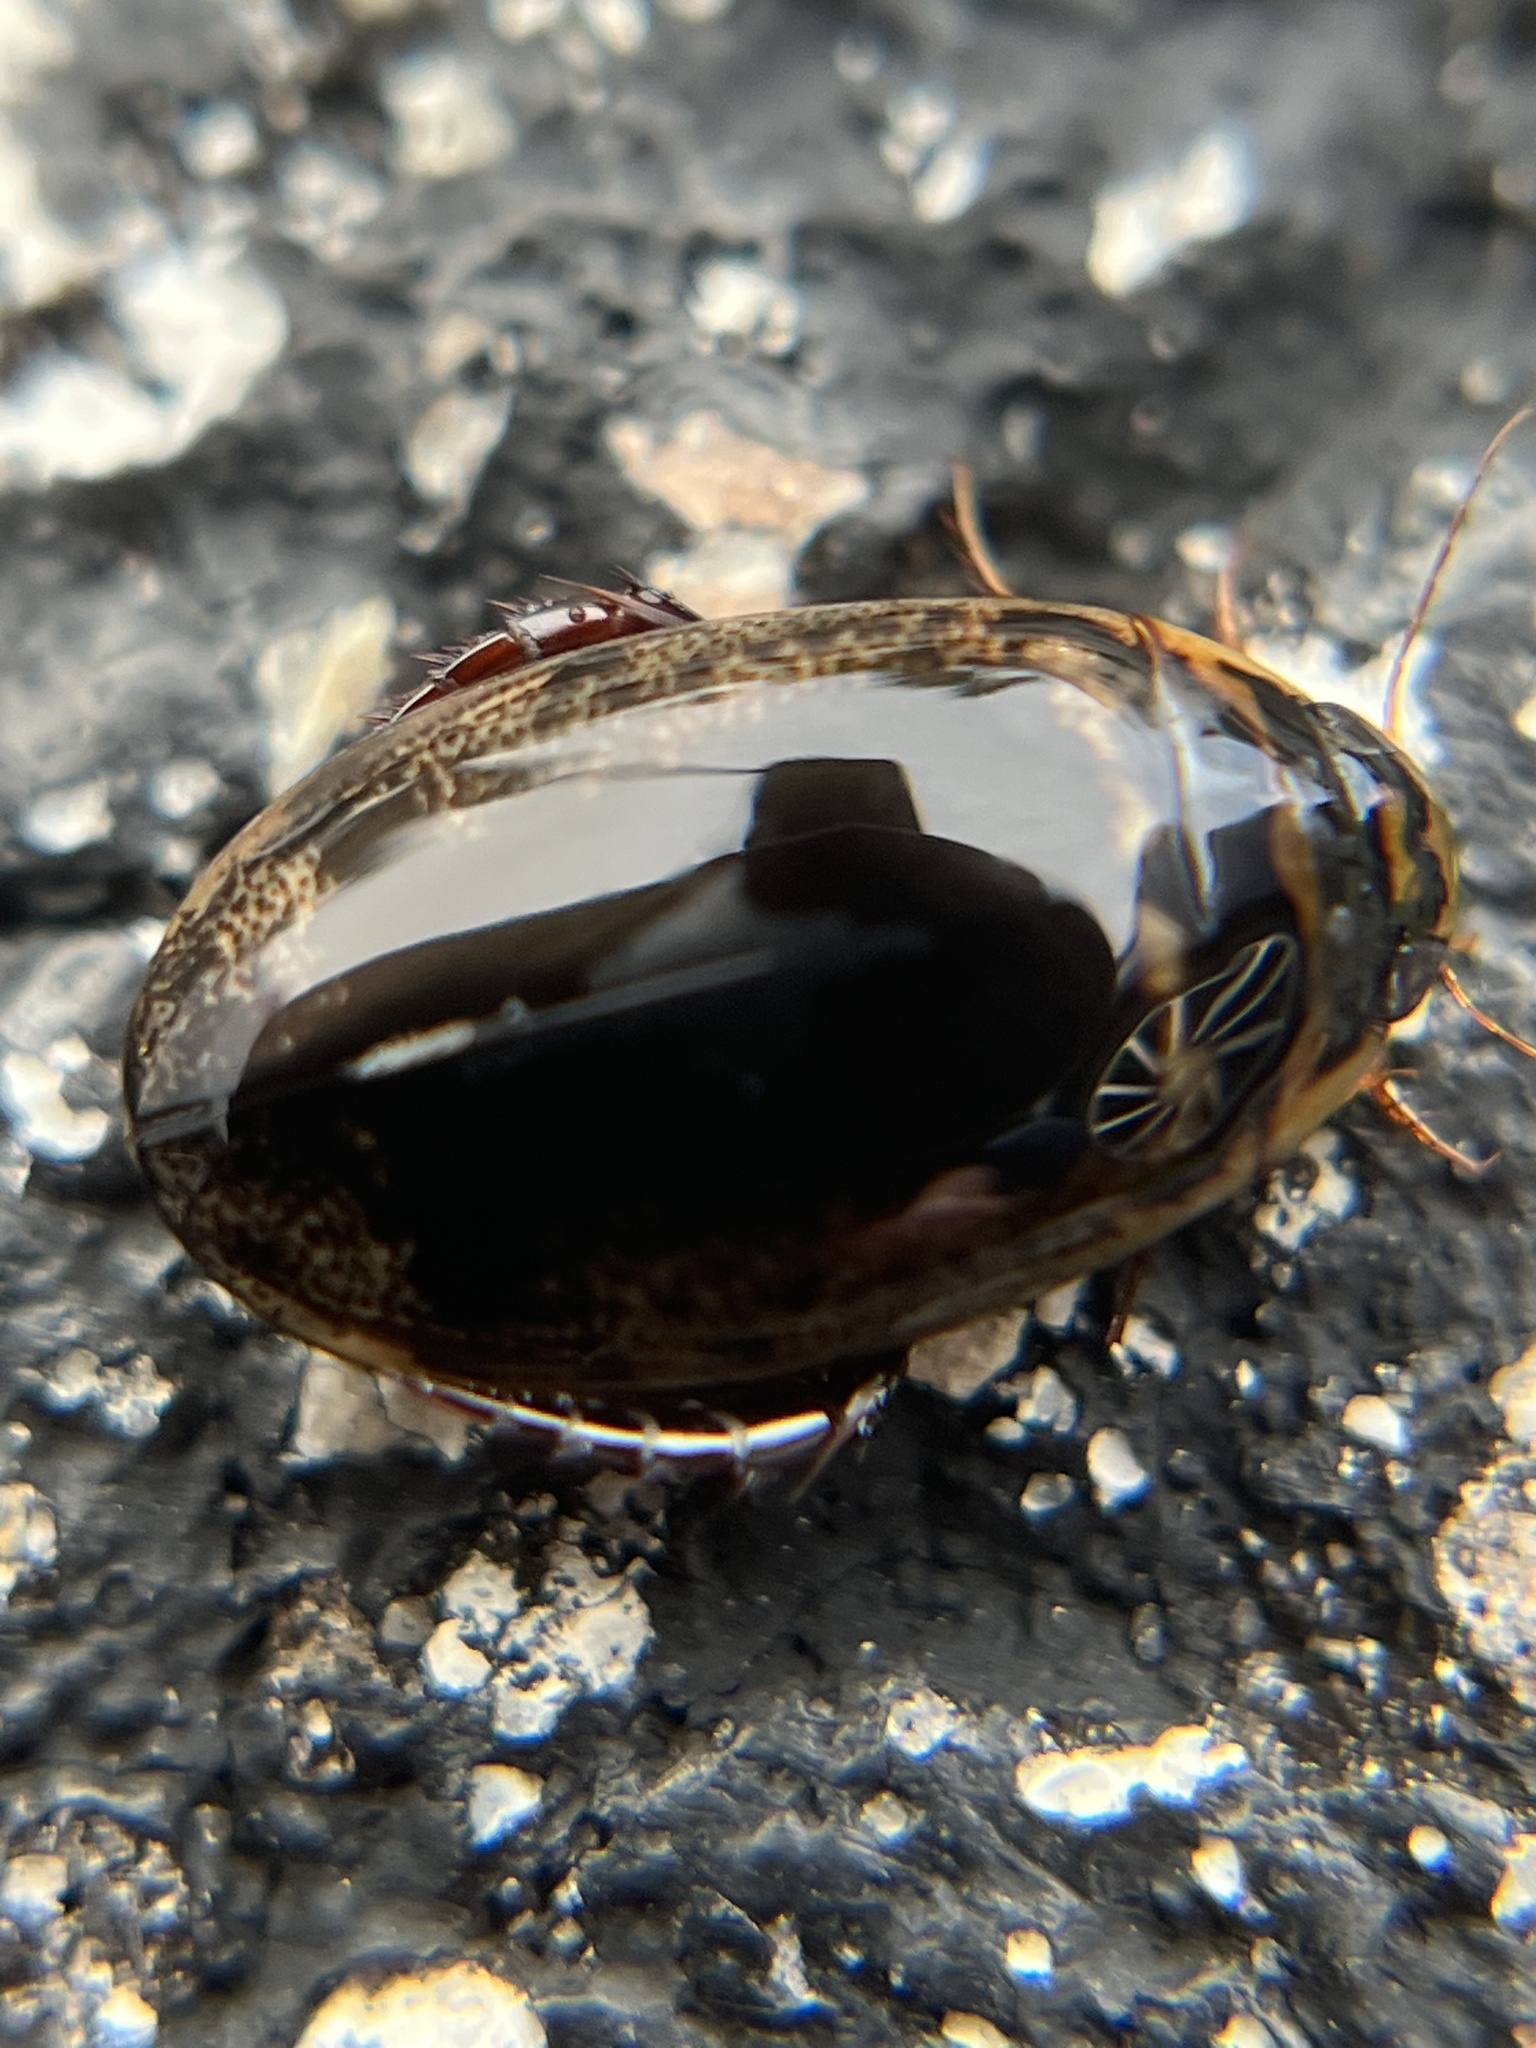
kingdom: Animalia
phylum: Arthropoda
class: Insecta
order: Coleoptera
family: Dytiscidae
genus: Thermonectus
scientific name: Thermonectus basillaris
